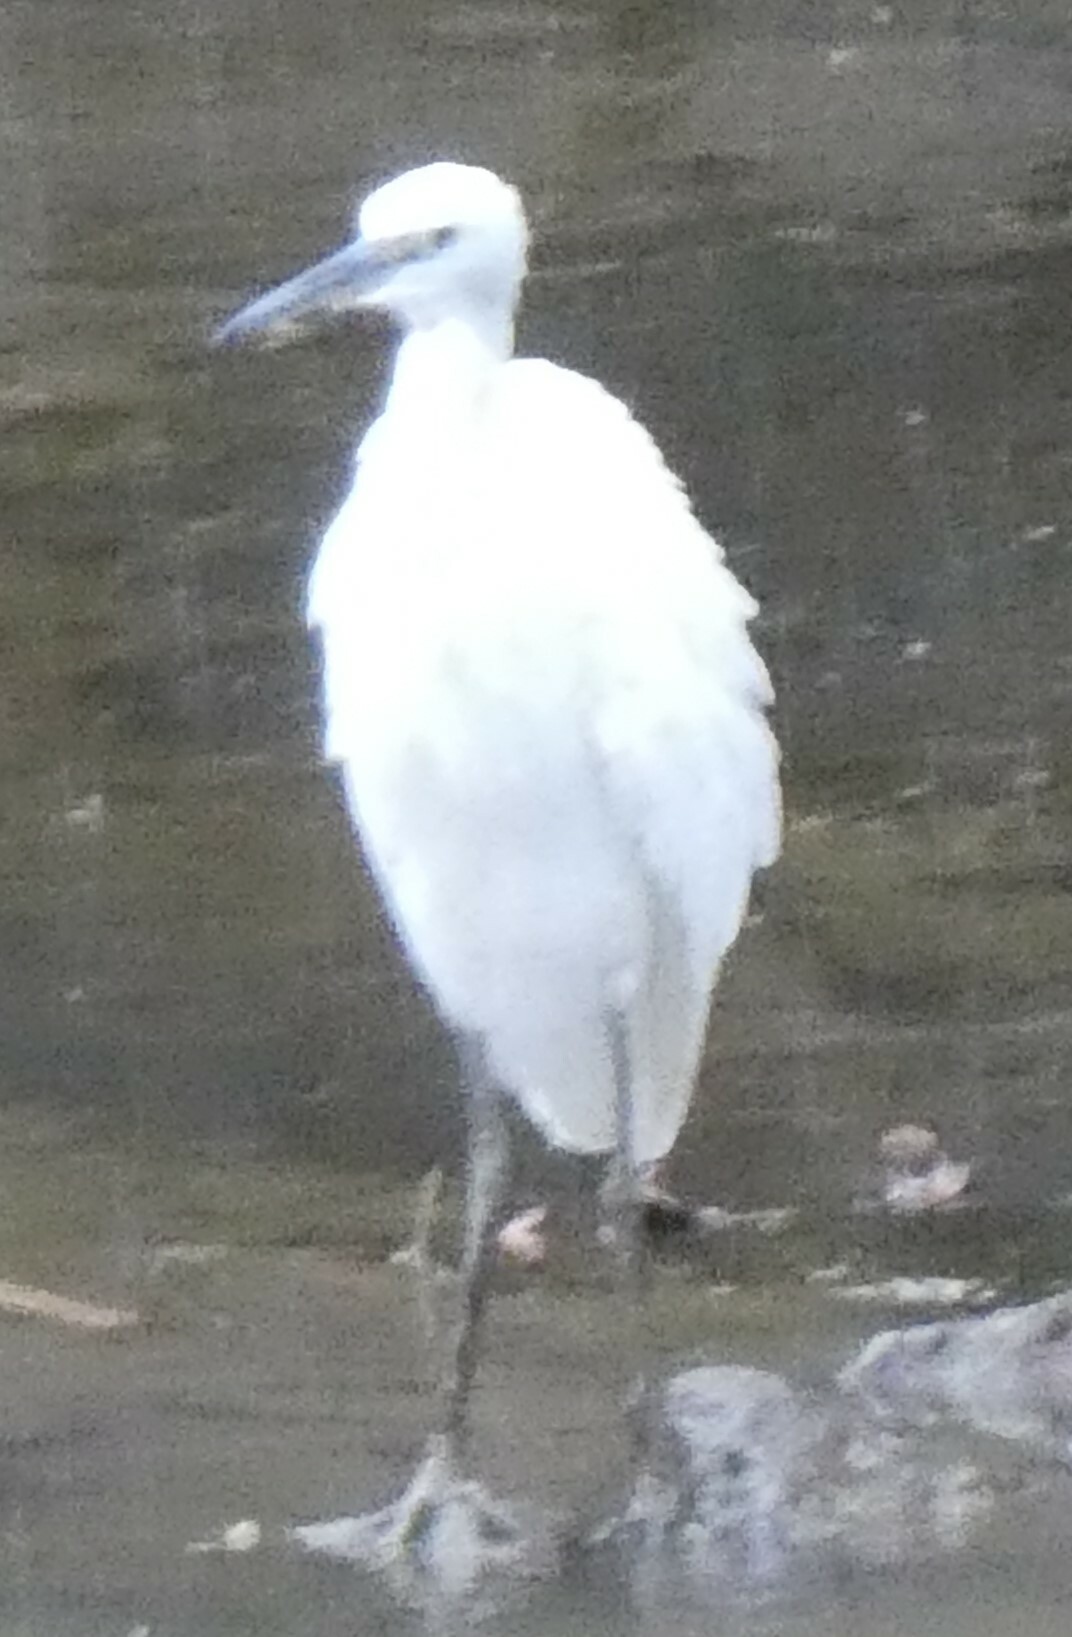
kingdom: Animalia
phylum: Chordata
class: Aves
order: Pelecaniformes
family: Ardeidae
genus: Egretta
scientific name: Egretta garzetta
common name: Little egret
